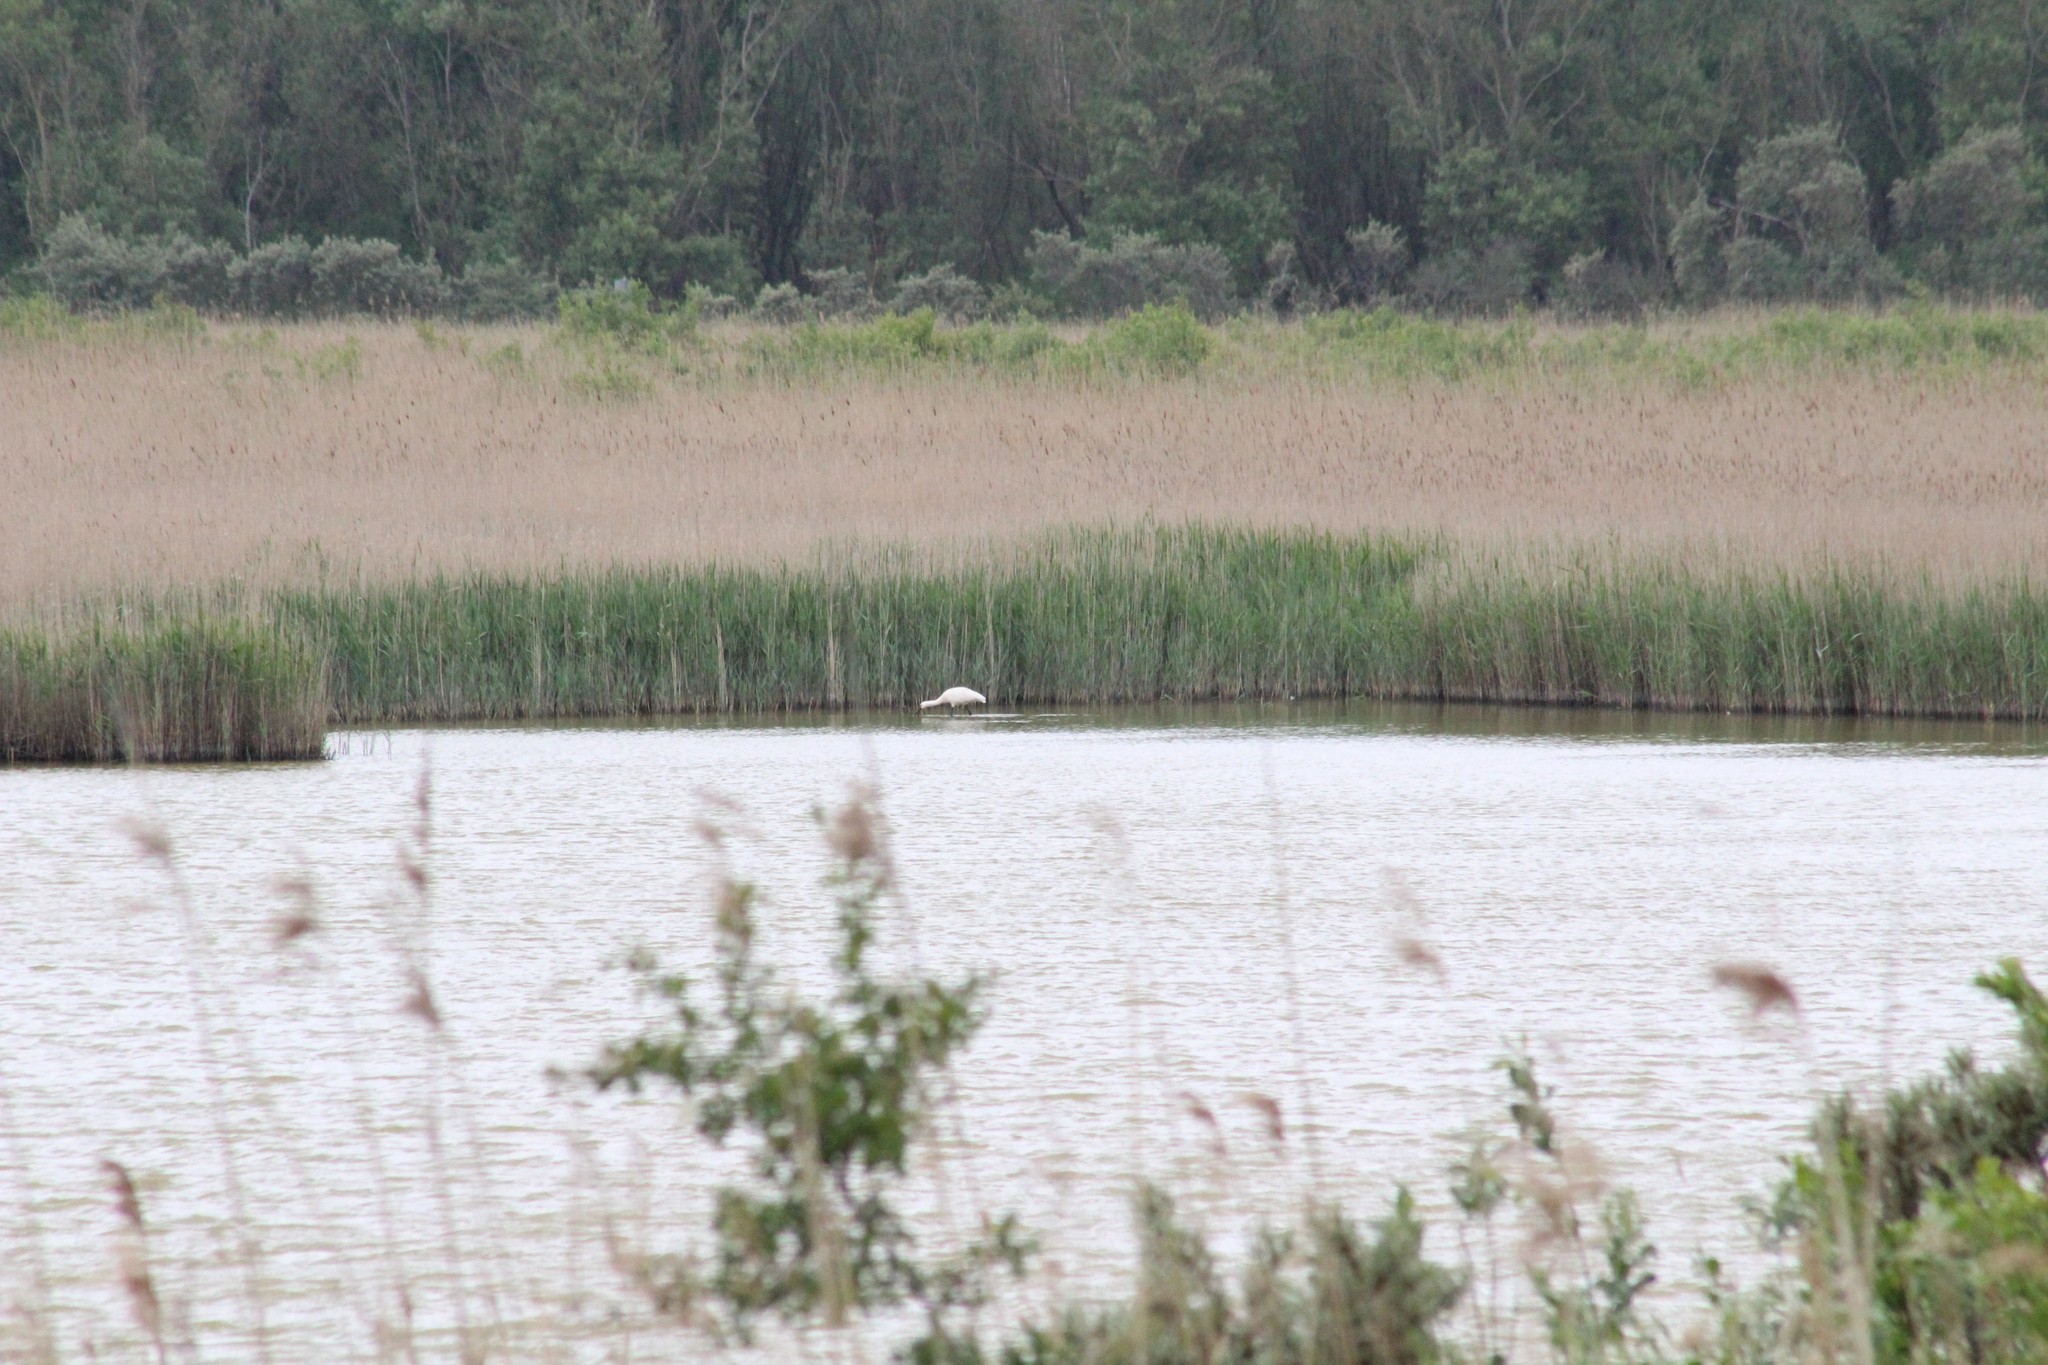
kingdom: Animalia
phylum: Chordata
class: Aves
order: Pelecaniformes
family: Threskiornithidae
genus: Platalea
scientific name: Platalea leucorodia
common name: Eurasian spoonbill
